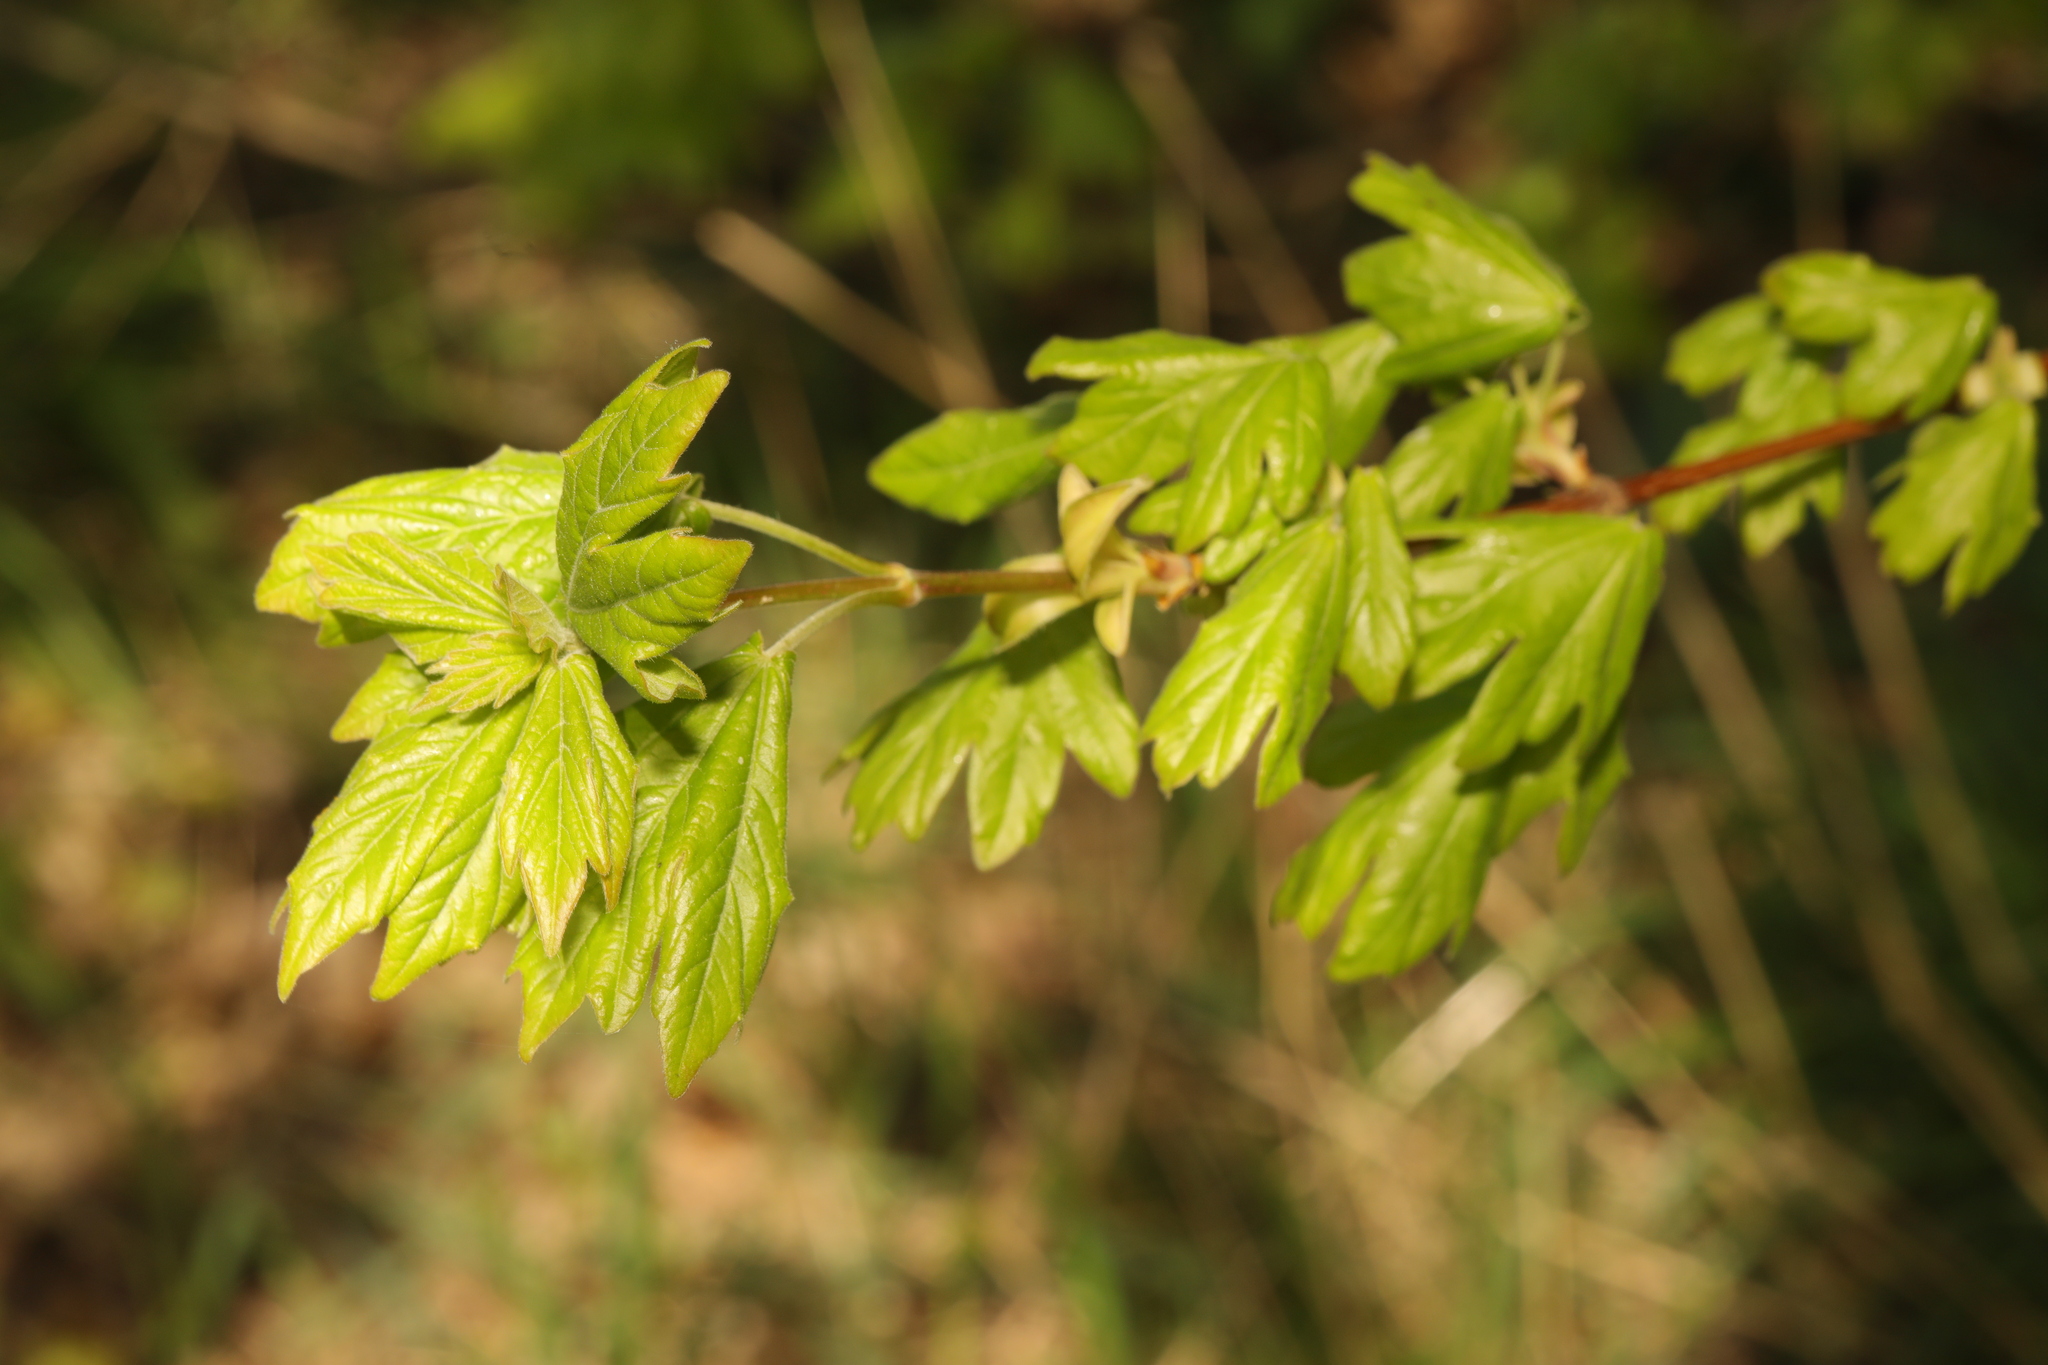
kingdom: Plantae
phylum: Tracheophyta
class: Magnoliopsida
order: Sapindales
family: Sapindaceae
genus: Acer
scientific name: Acer campestre
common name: Field maple
